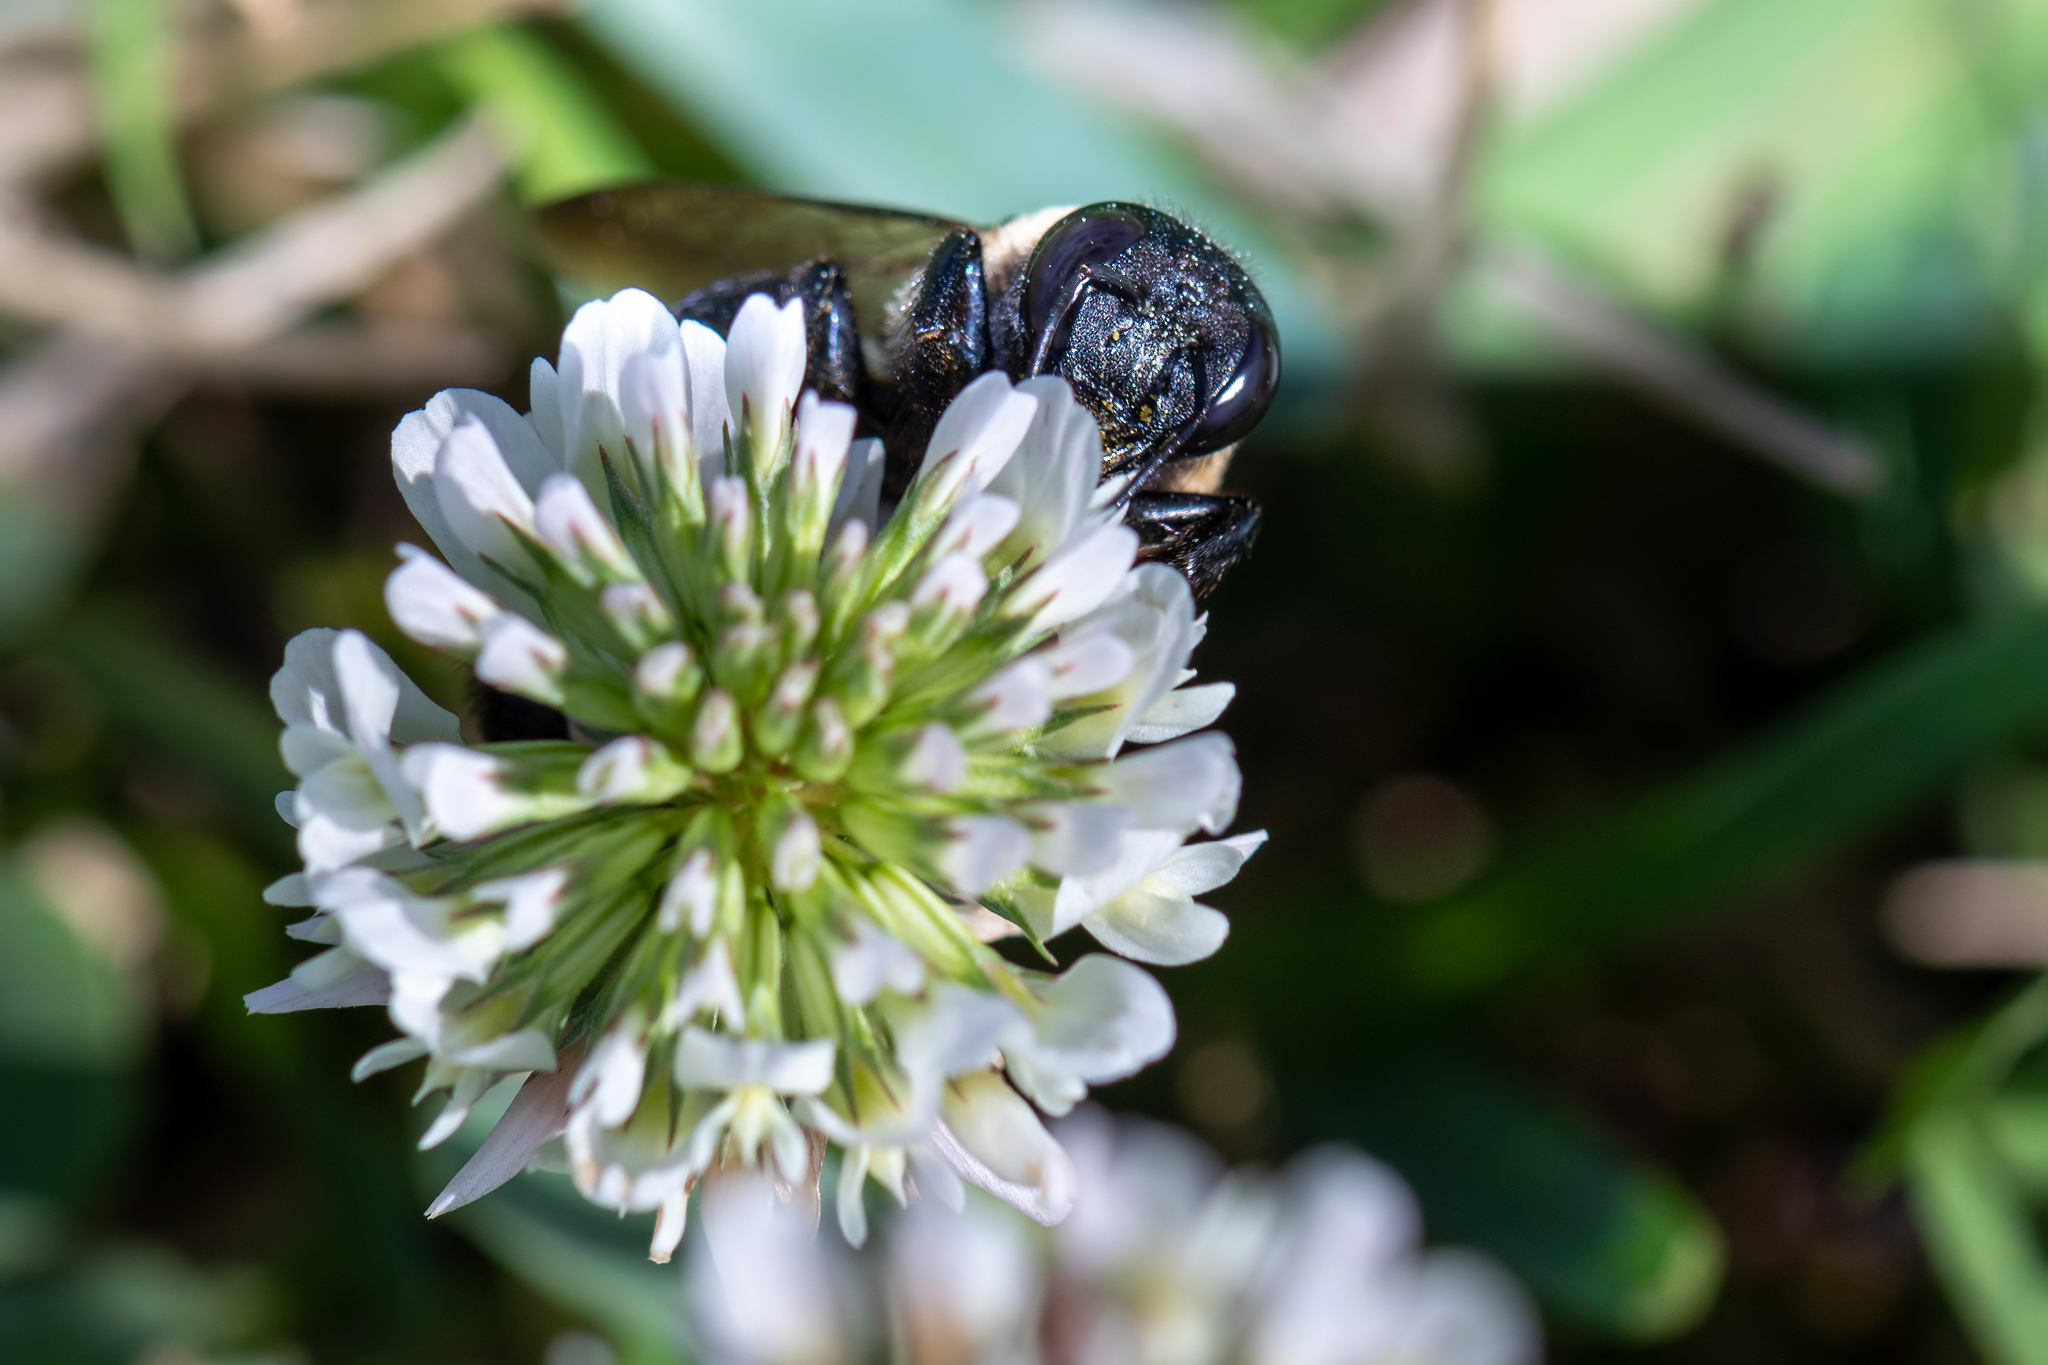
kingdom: Animalia
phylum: Arthropoda
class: Insecta
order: Hymenoptera
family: Apidae
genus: Xylocopa
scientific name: Xylocopa virginica
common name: Carpenter bee
